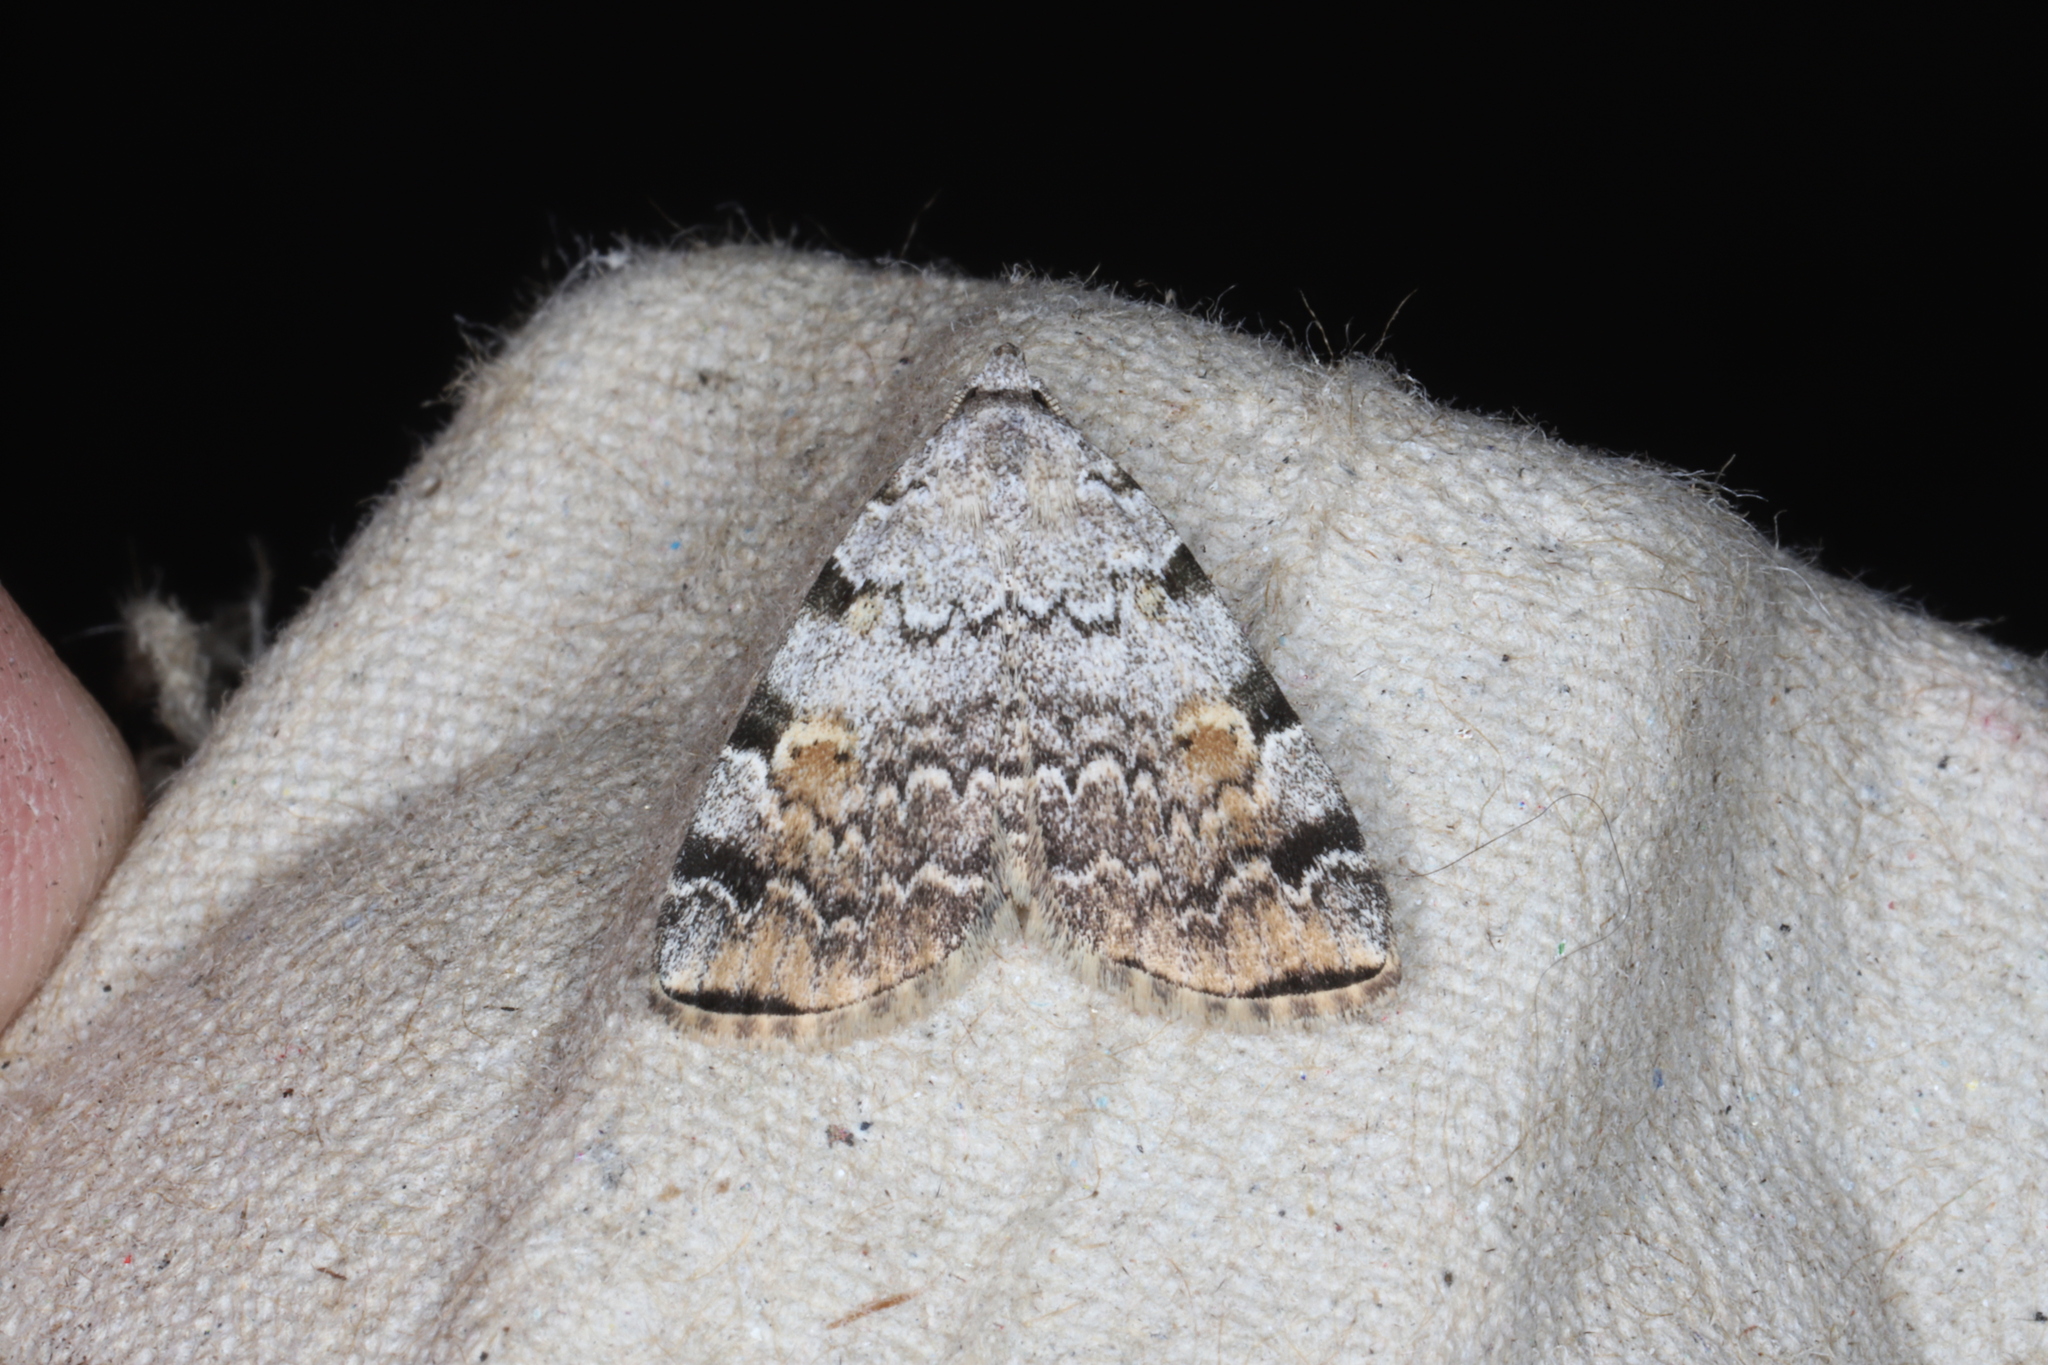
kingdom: Animalia
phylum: Arthropoda
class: Insecta
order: Lepidoptera
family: Erebidae
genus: Idia
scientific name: Idia americalis
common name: American idia moth
